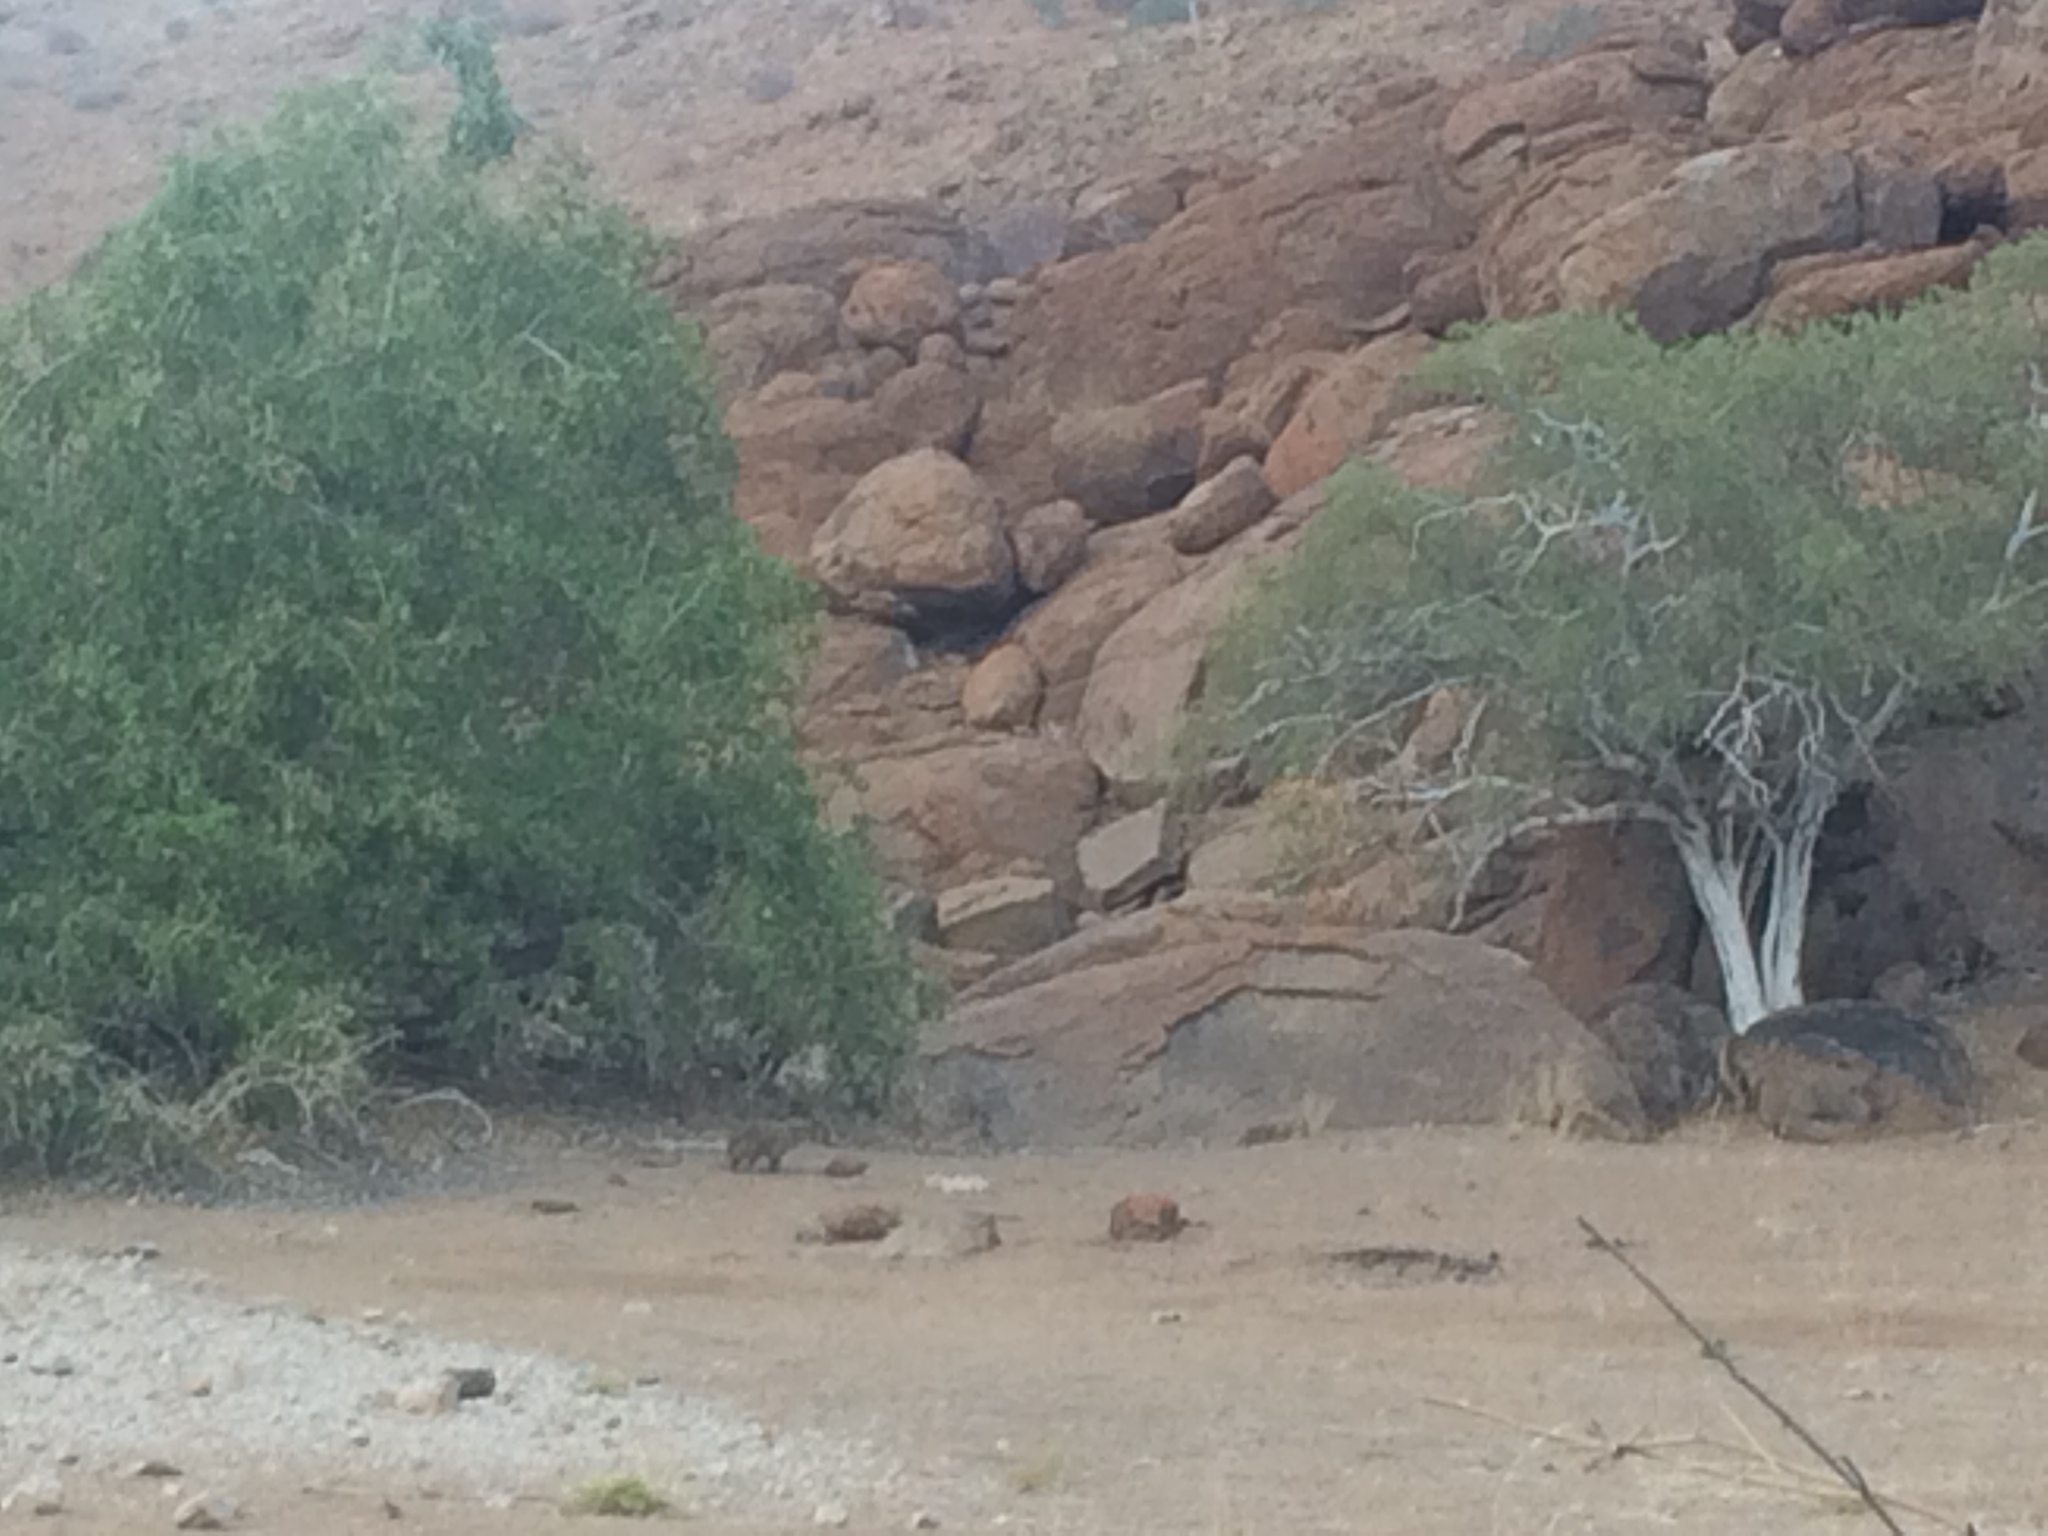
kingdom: Animalia
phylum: Chordata
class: Mammalia
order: Hyracoidea
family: Procaviidae
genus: Procavia
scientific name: Procavia capensis
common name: Rock hyrax
